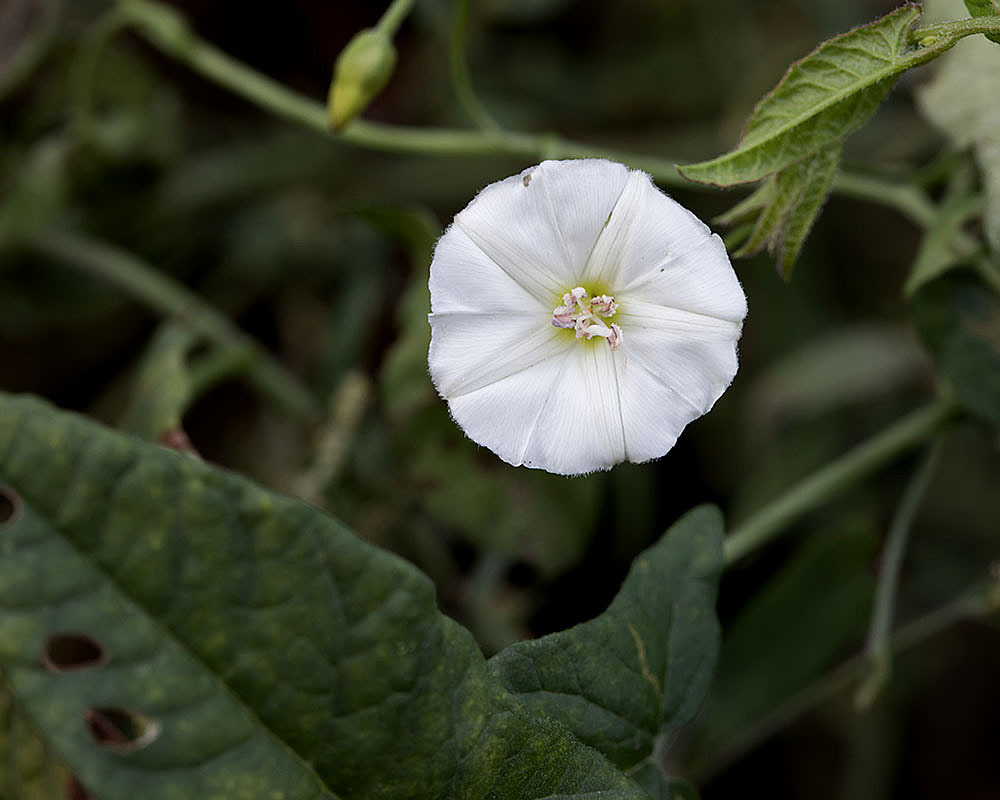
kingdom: Plantae
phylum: Tracheophyta
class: Magnoliopsida
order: Solanales
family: Convolvulaceae
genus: Convolvulus
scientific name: Convolvulus arvensis
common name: Field bindweed
